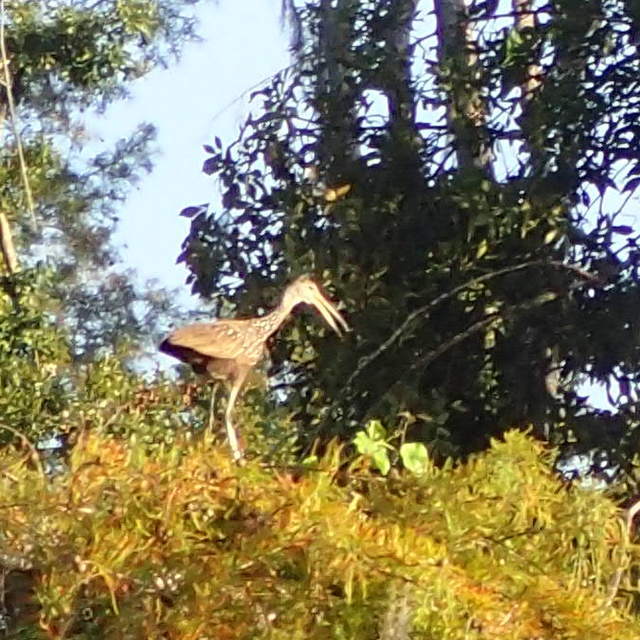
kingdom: Animalia
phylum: Chordata
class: Aves
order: Gruiformes
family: Aramidae
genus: Aramus
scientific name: Aramus guarauna
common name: Limpkin
